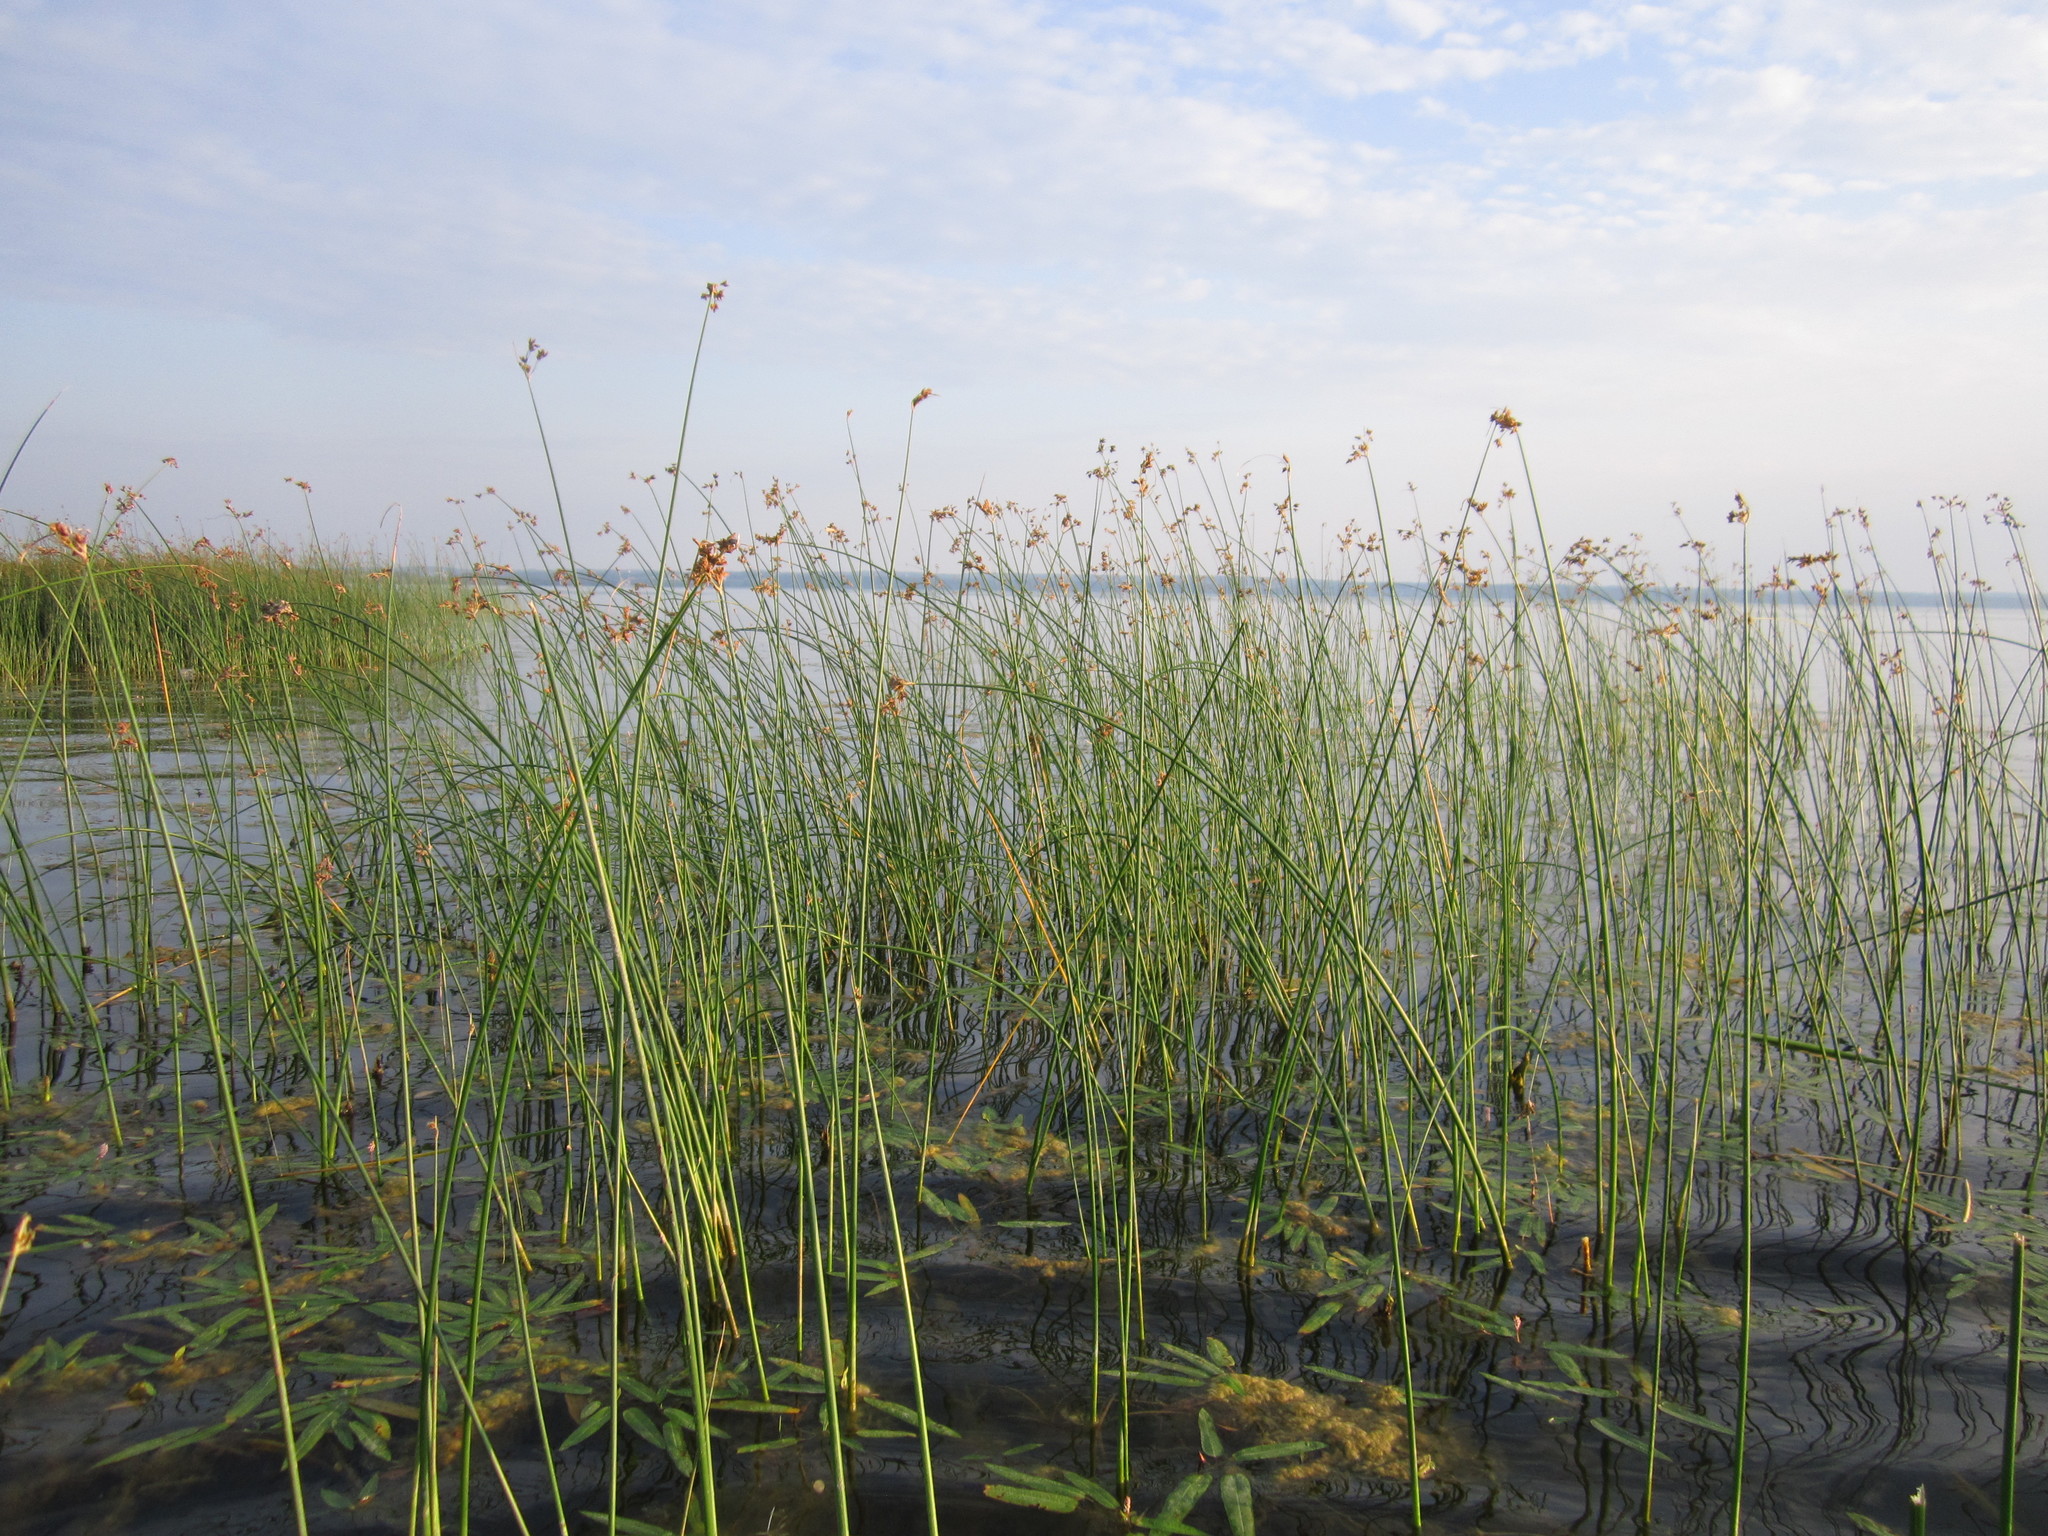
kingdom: Plantae
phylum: Tracheophyta
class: Liliopsida
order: Poales
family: Cyperaceae
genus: Schoenoplectus
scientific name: Schoenoplectus lacustris
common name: Common club-rush
